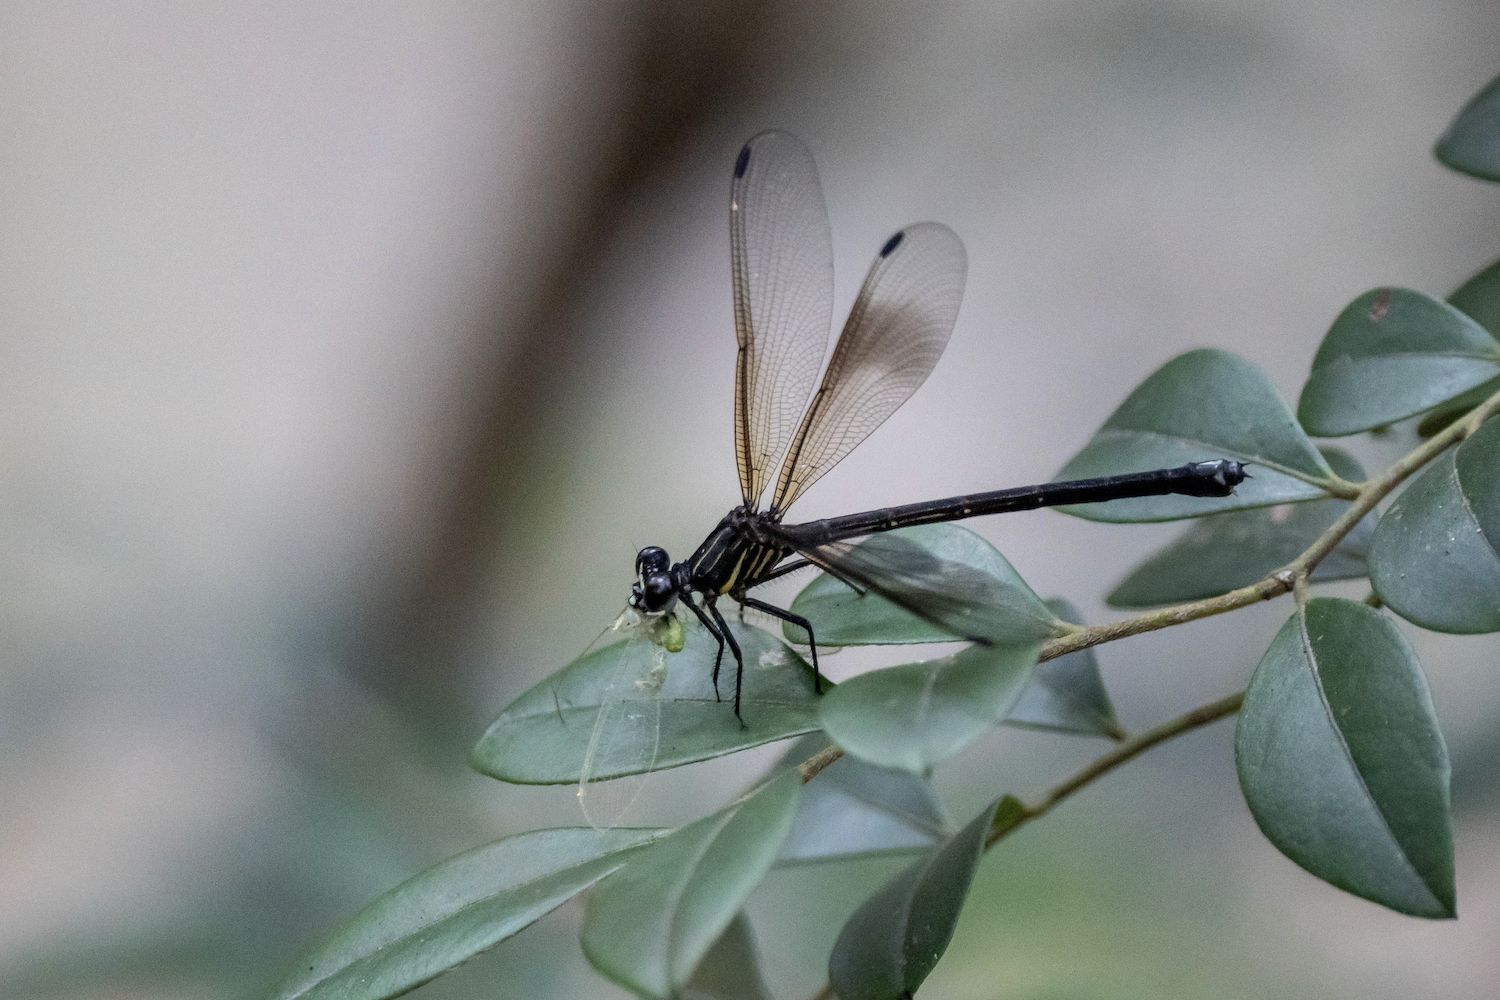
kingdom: Animalia
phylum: Arthropoda
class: Insecta
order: Odonata
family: Euphaeidae
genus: Euphaea
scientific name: Euphaea decorata
